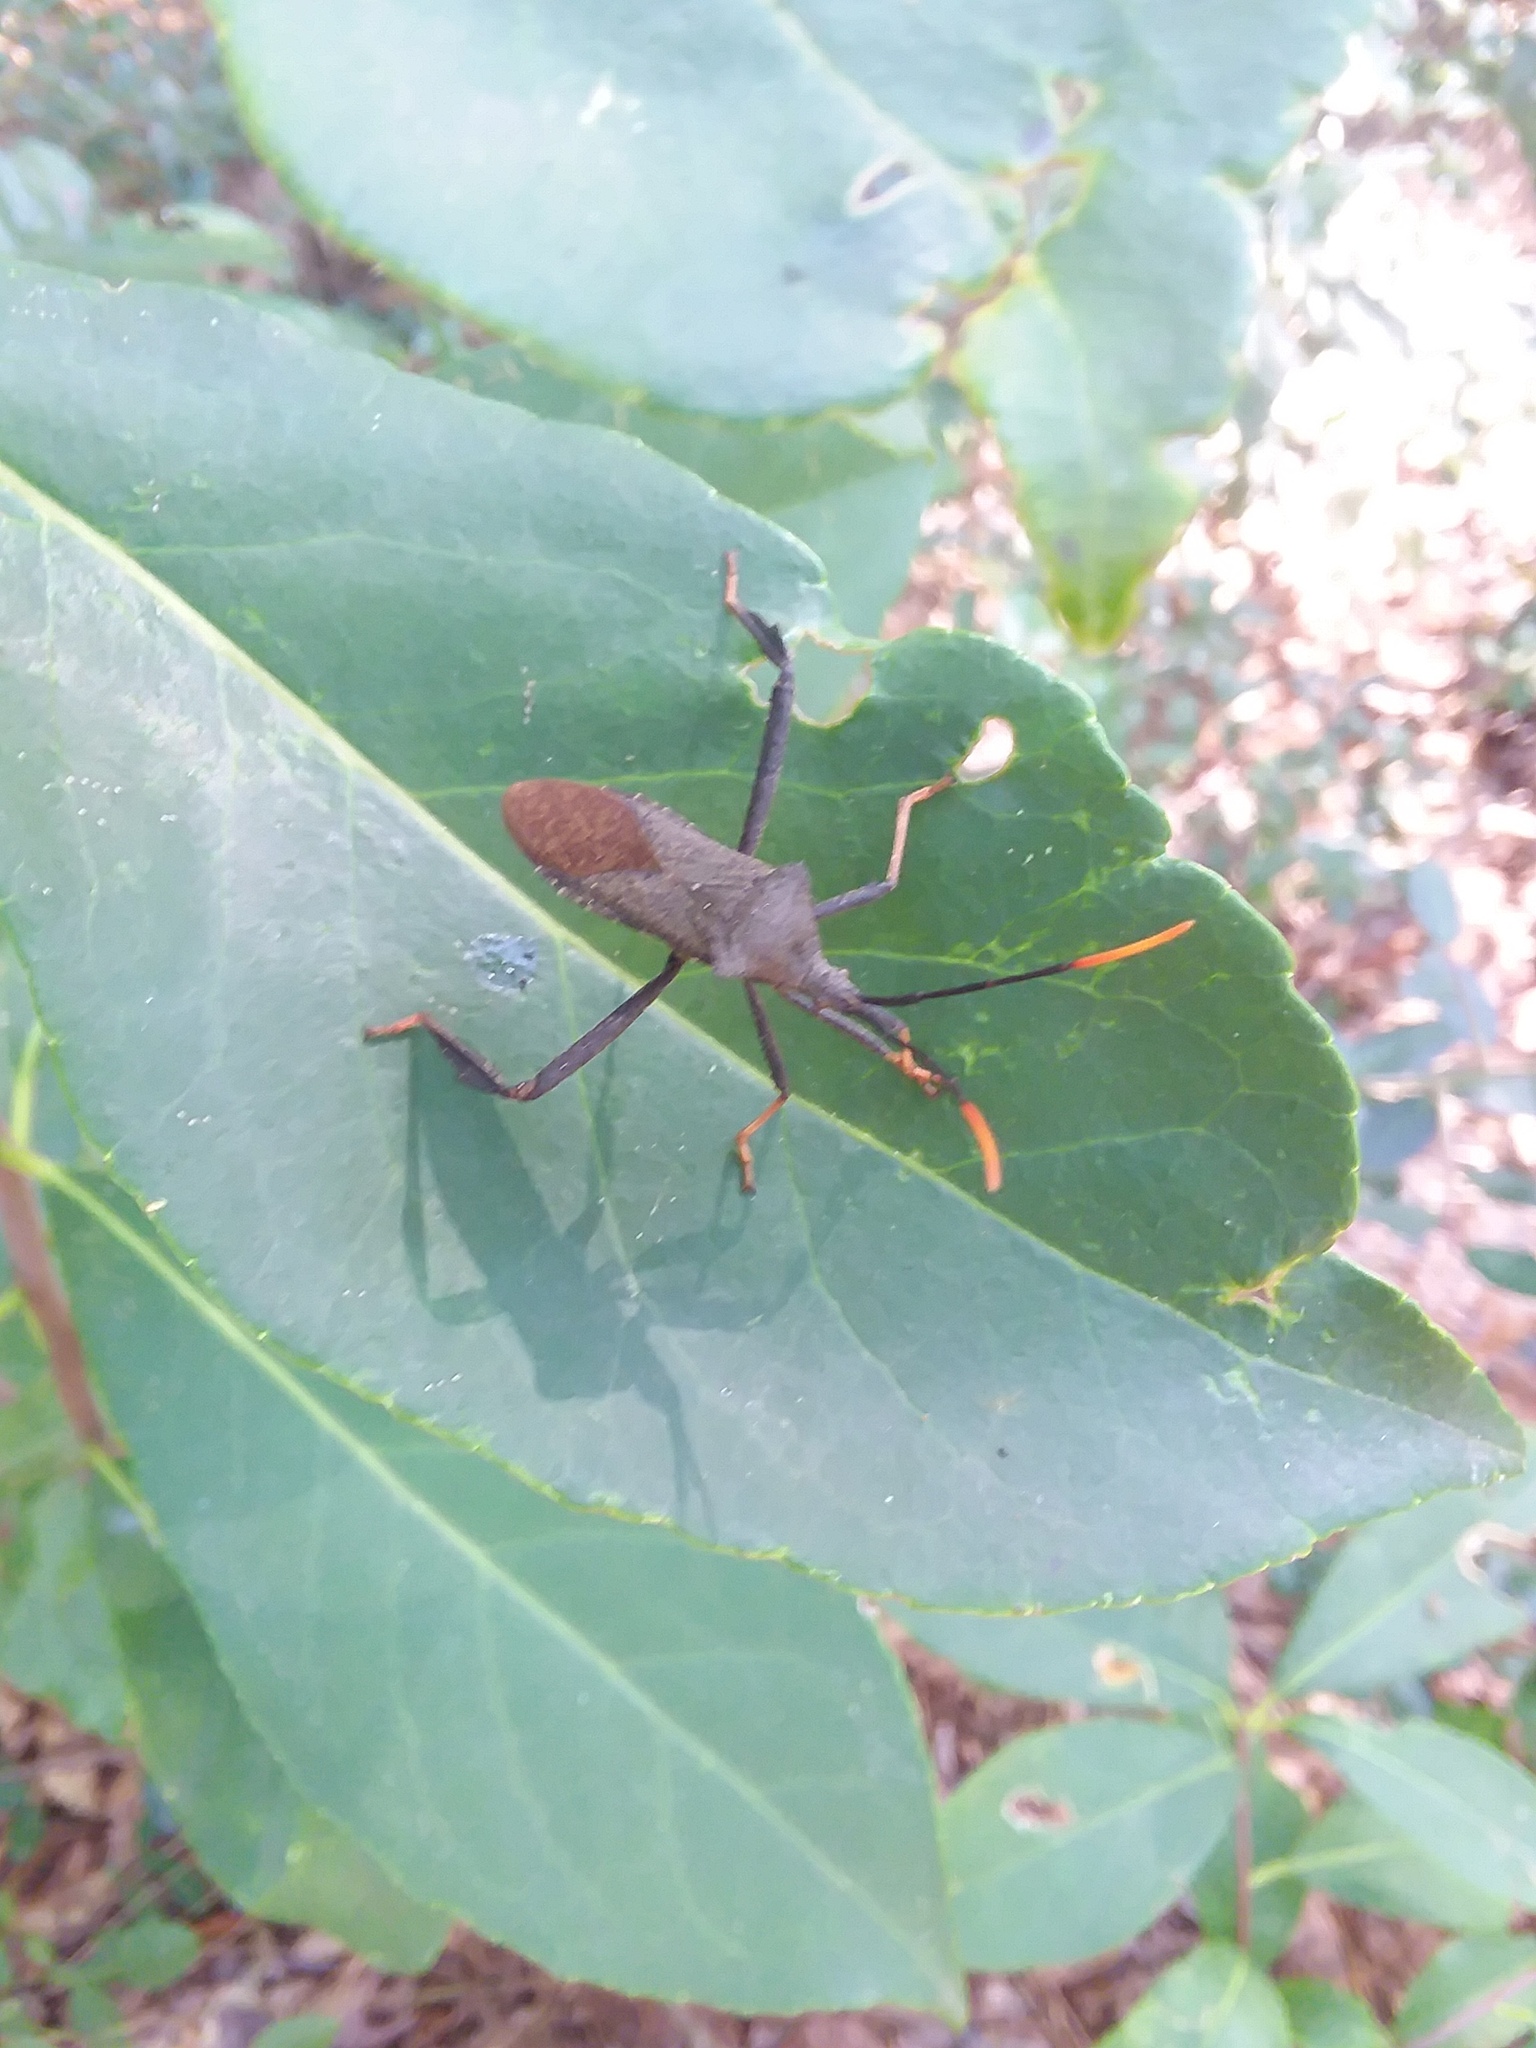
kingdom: Animalia
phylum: Arthropoda
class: Insecta
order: Hemiptera
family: Coreidae
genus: Acanthocephala
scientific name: Acanthocephala terminalis
